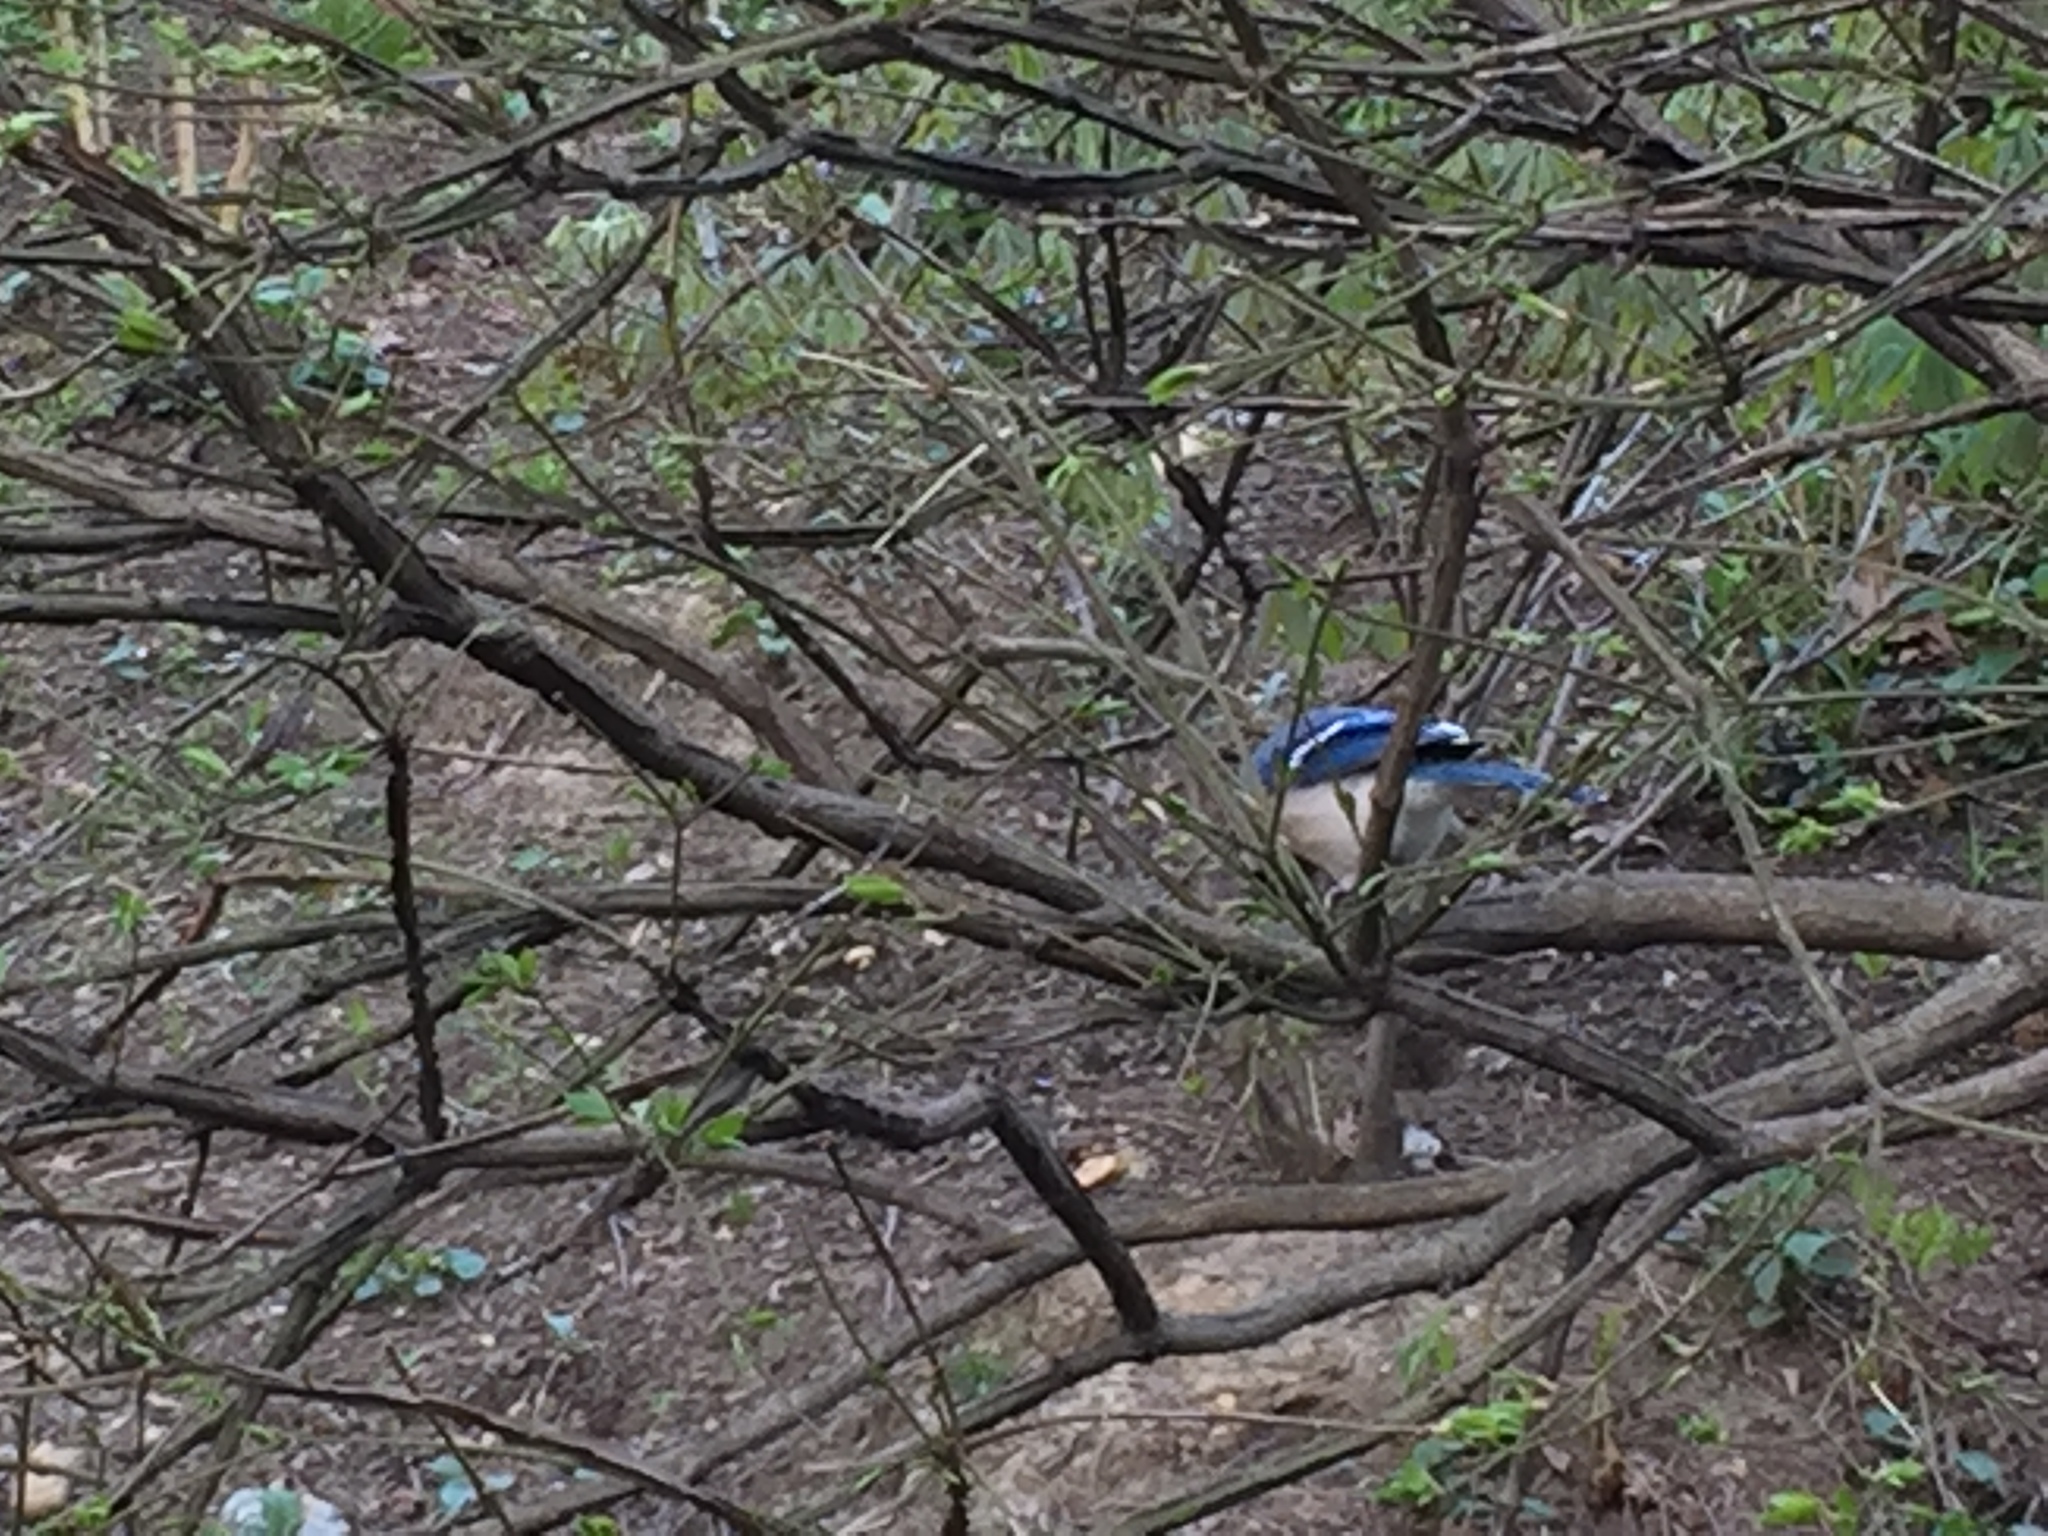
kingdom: Animalia
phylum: Chordata
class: Aves
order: Passeriformes
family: Corvidae
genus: Cyanocitta
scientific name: Cyanocitta cristata
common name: Blue jay
